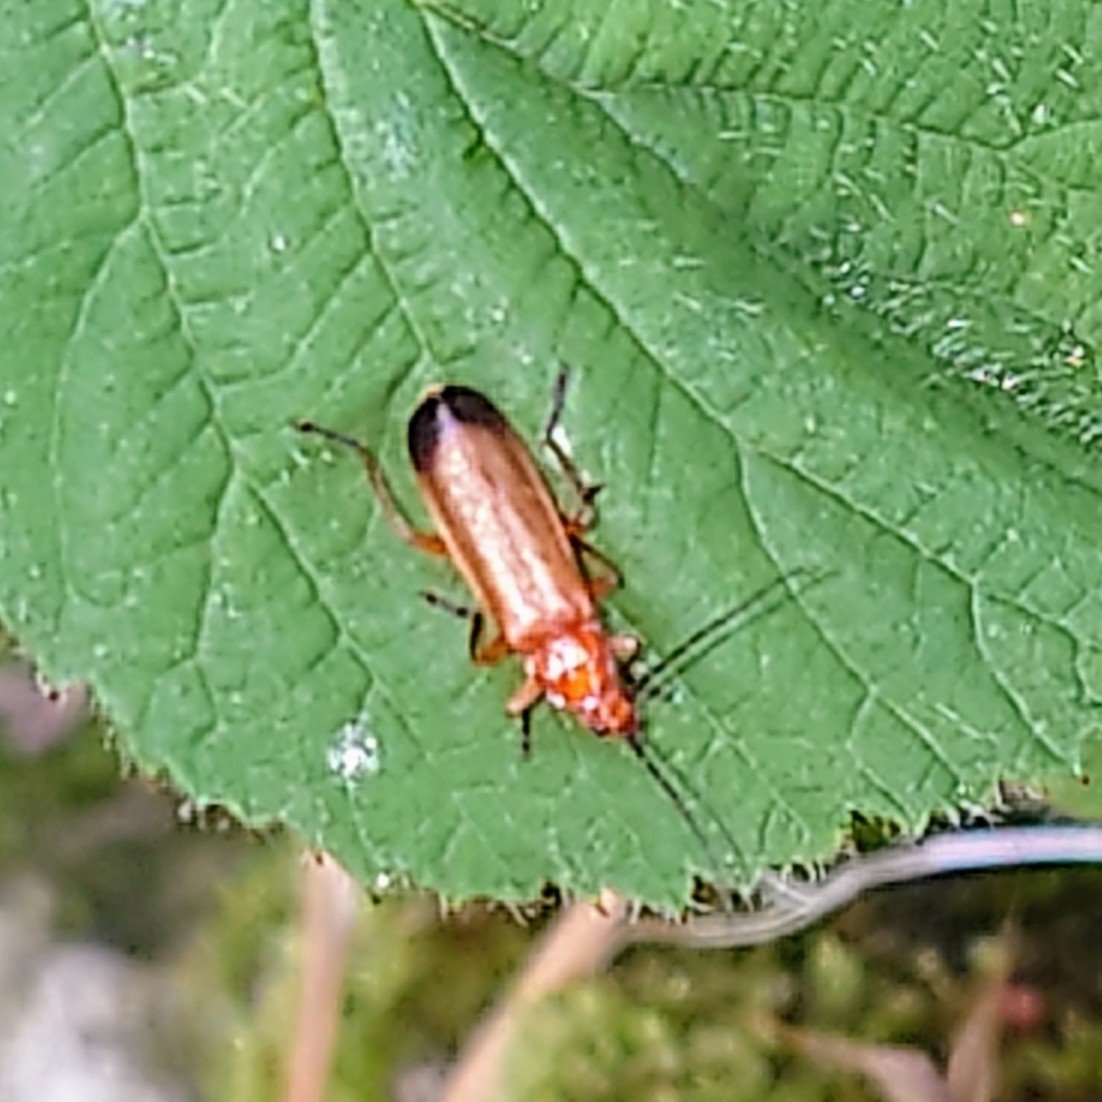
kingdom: Animalia
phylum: Arthropoda
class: Insecta
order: Coleoptera
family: Cantharidae
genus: Rhagonycha
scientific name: Rhagonycha fulva
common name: Common red soldier beetle
